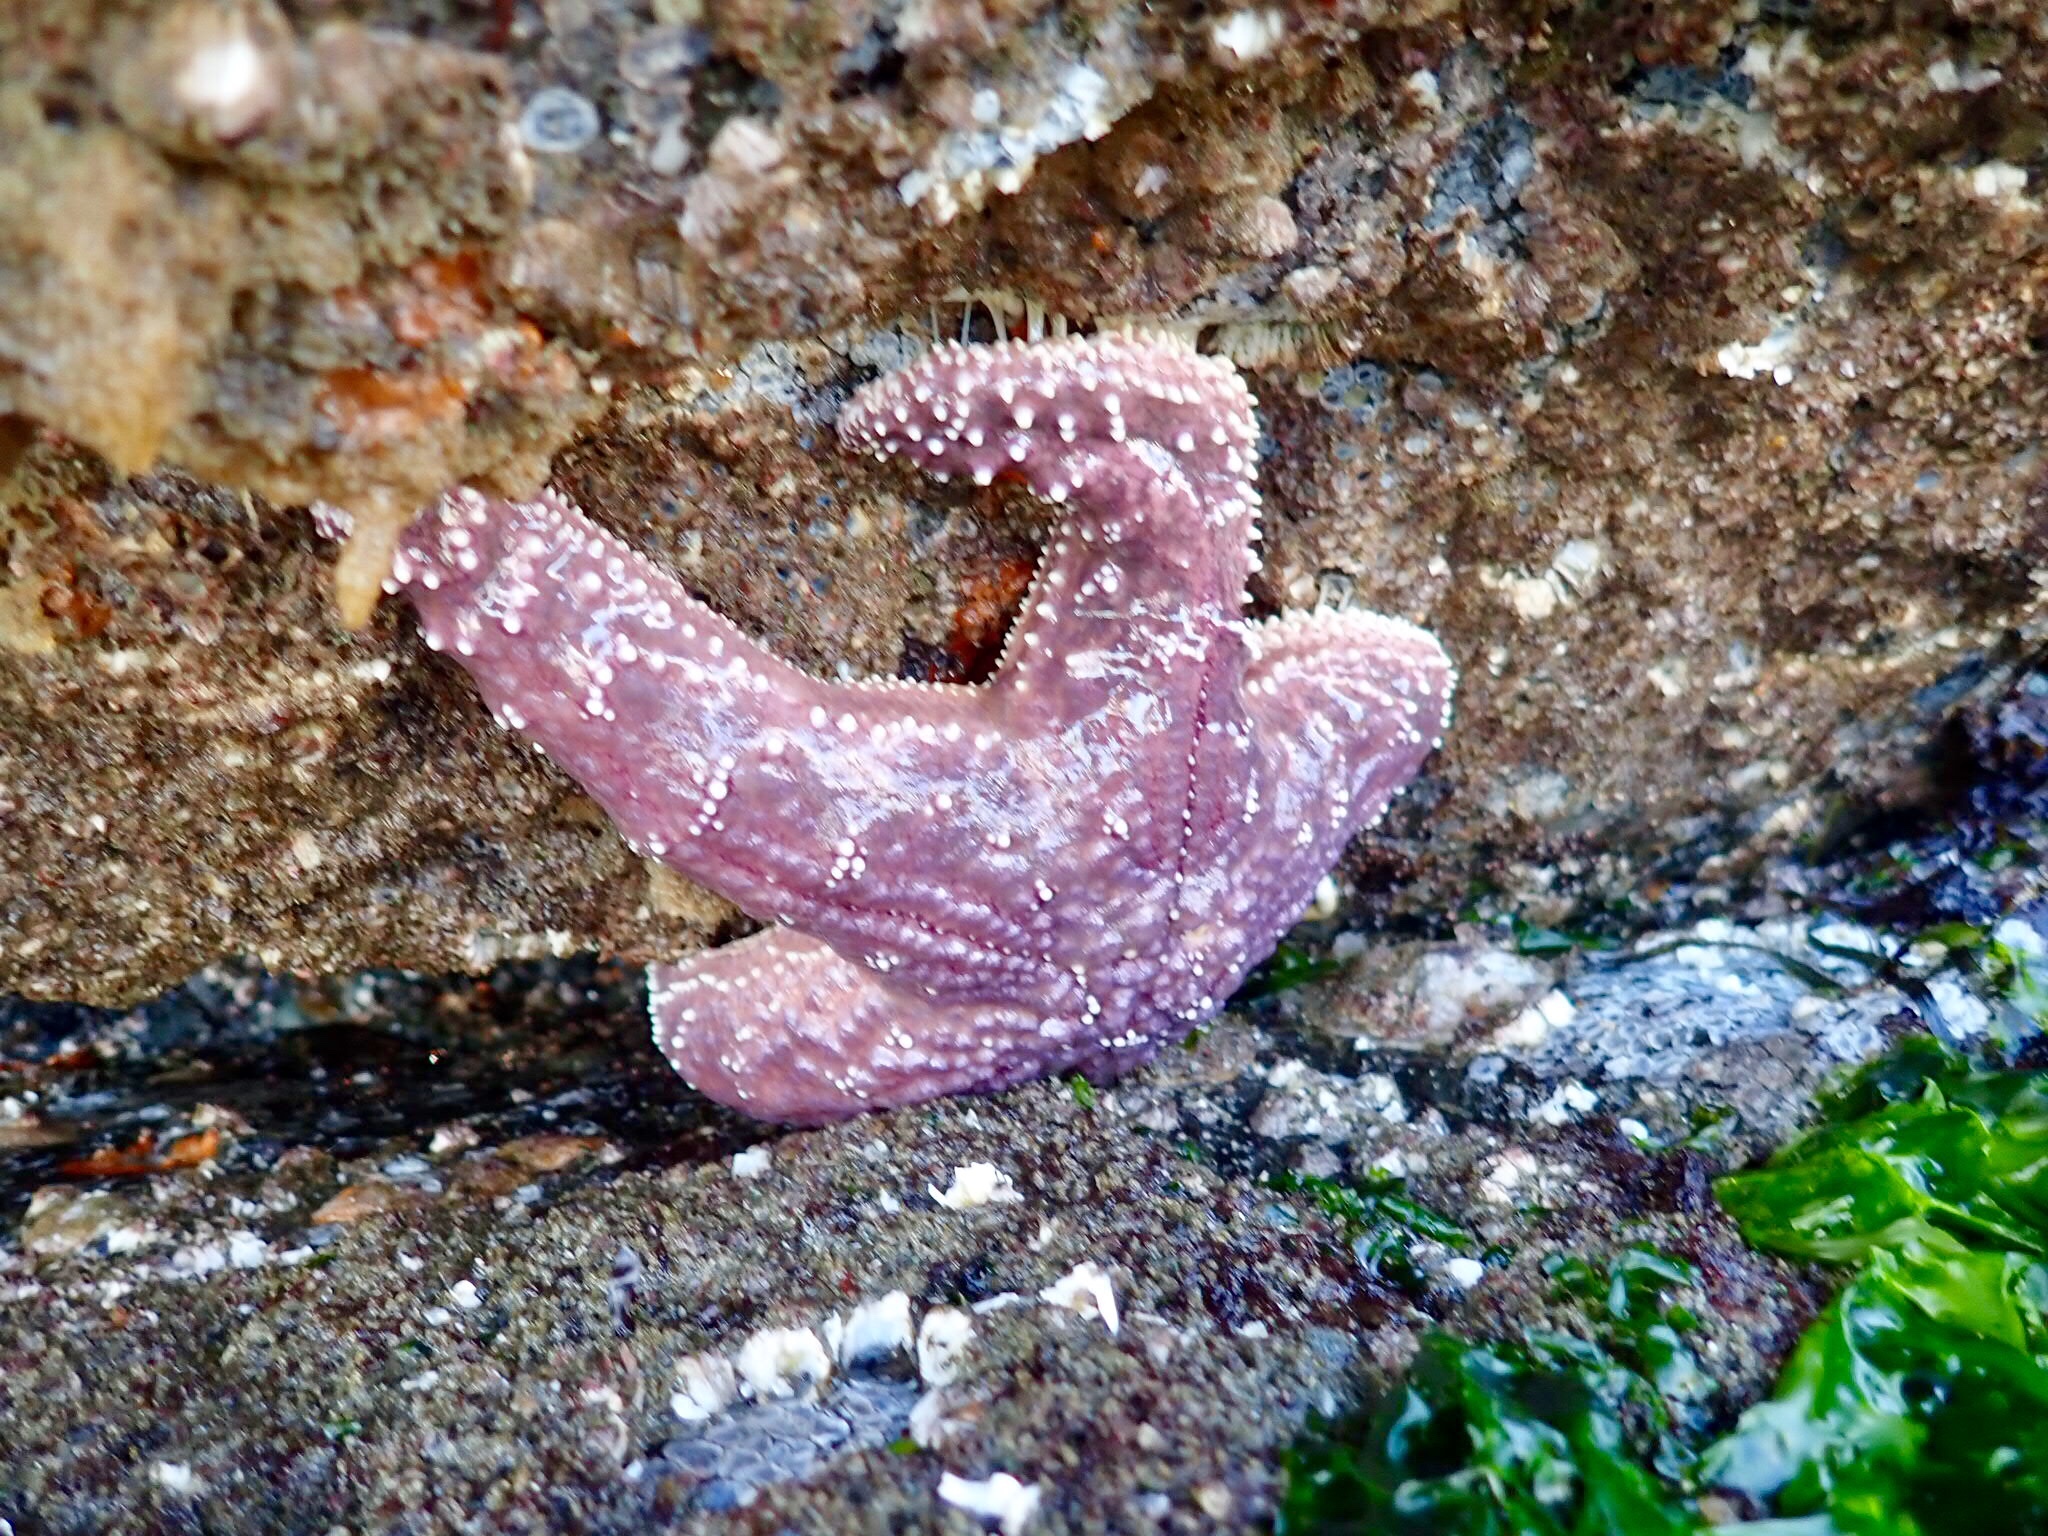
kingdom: Animalia
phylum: Echinodermata
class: Asteroidea
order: Forcipulatida
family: Asteriidae
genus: Pisaster
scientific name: Pisaster ochraceus
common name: Ochre stars
